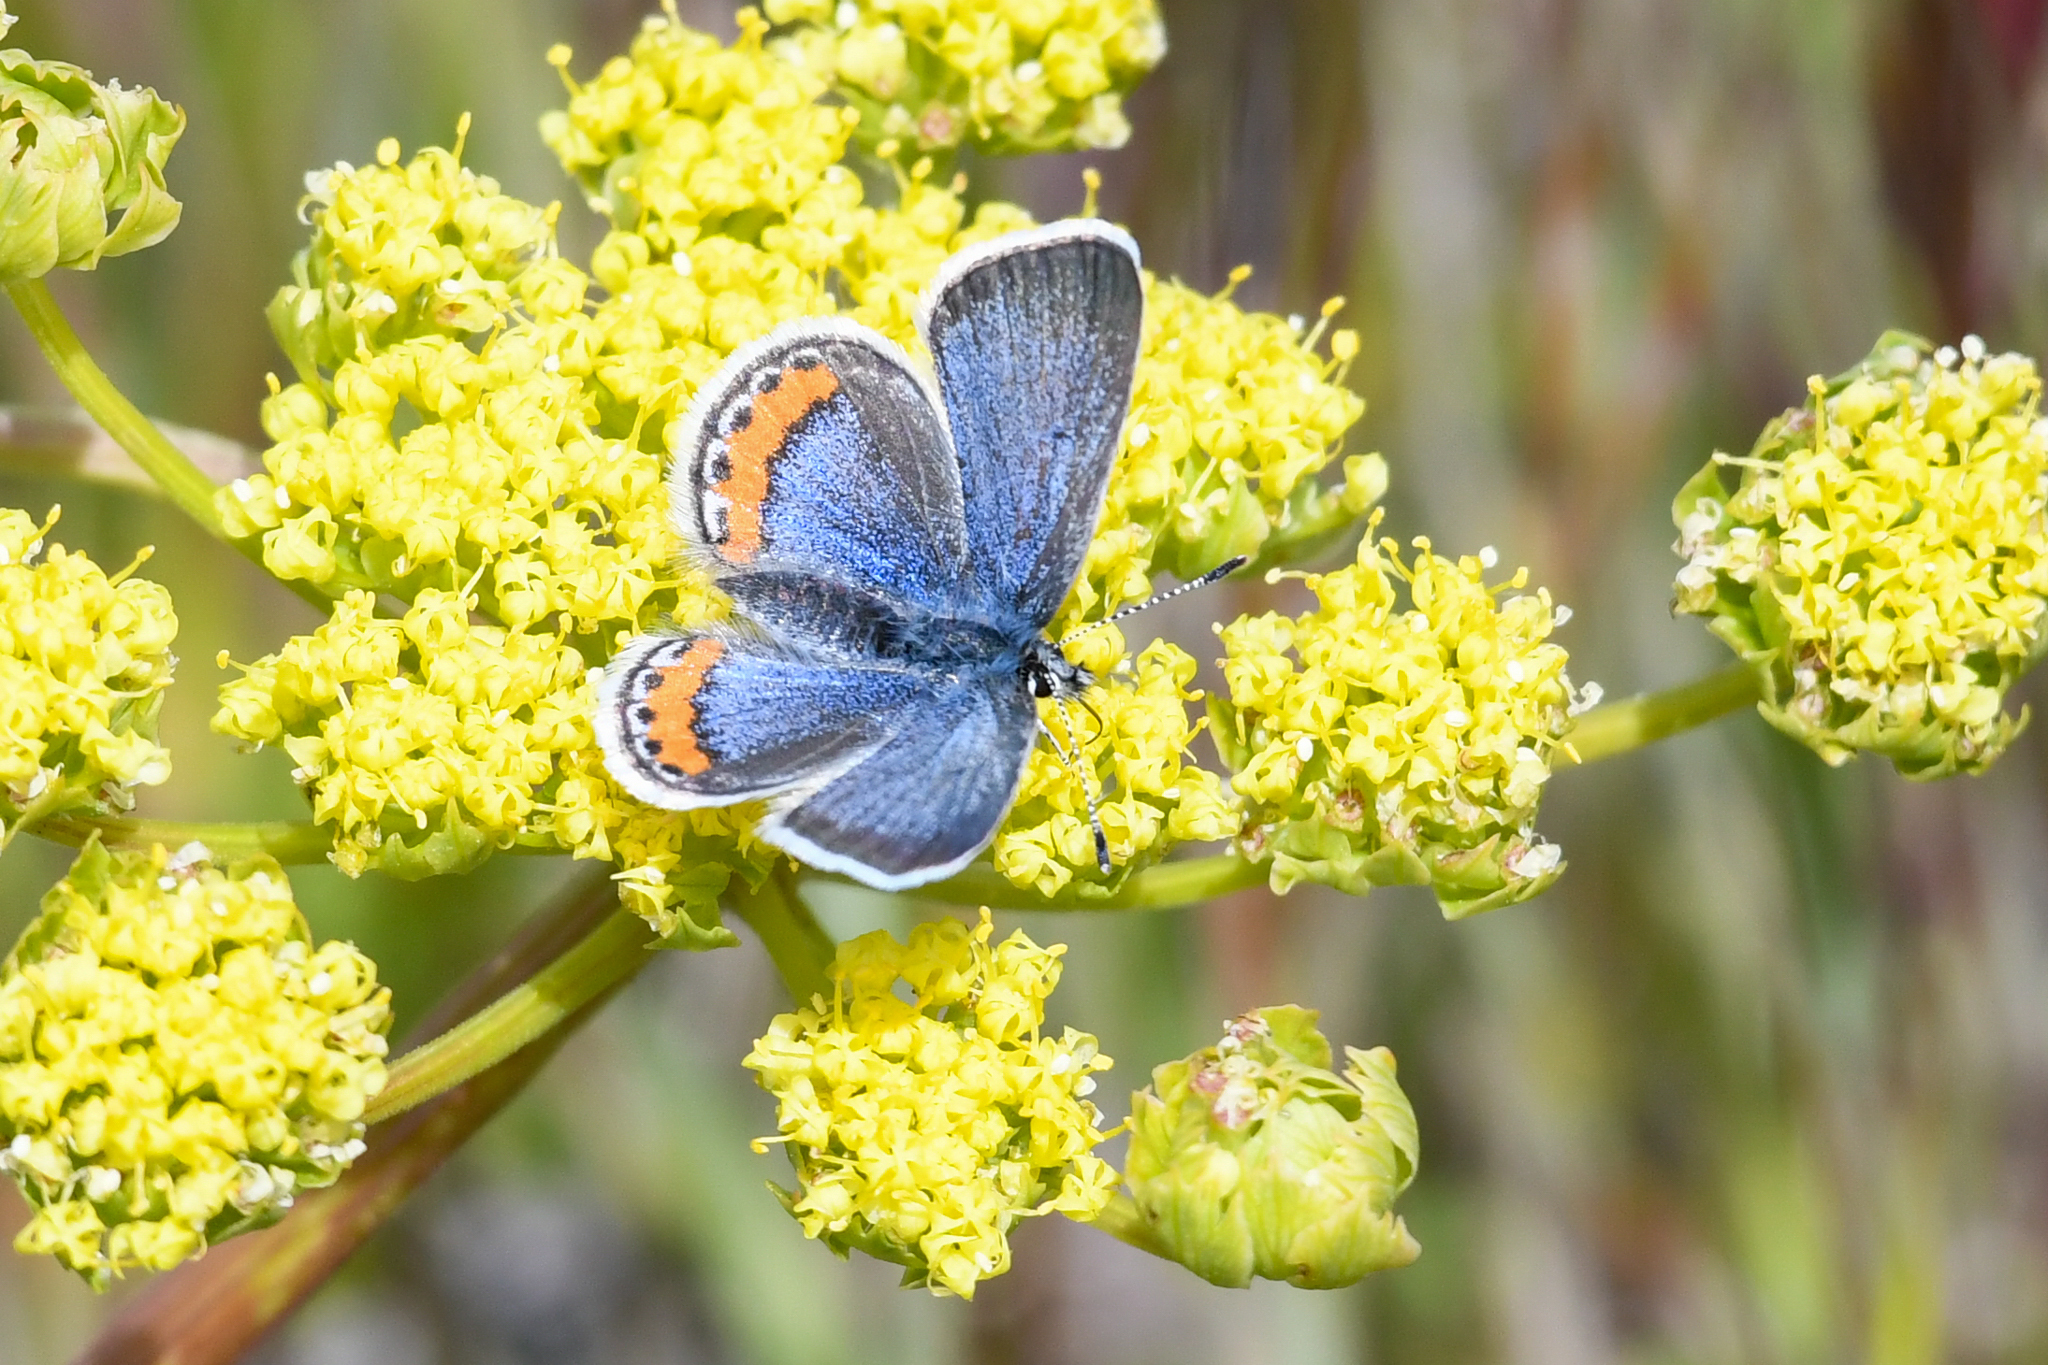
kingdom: Animalia
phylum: Arthropoda
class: Insecta
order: Lepidoptera
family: Lycaenidae
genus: Icaricia
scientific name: Icaricia acmon
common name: Acmon blue
